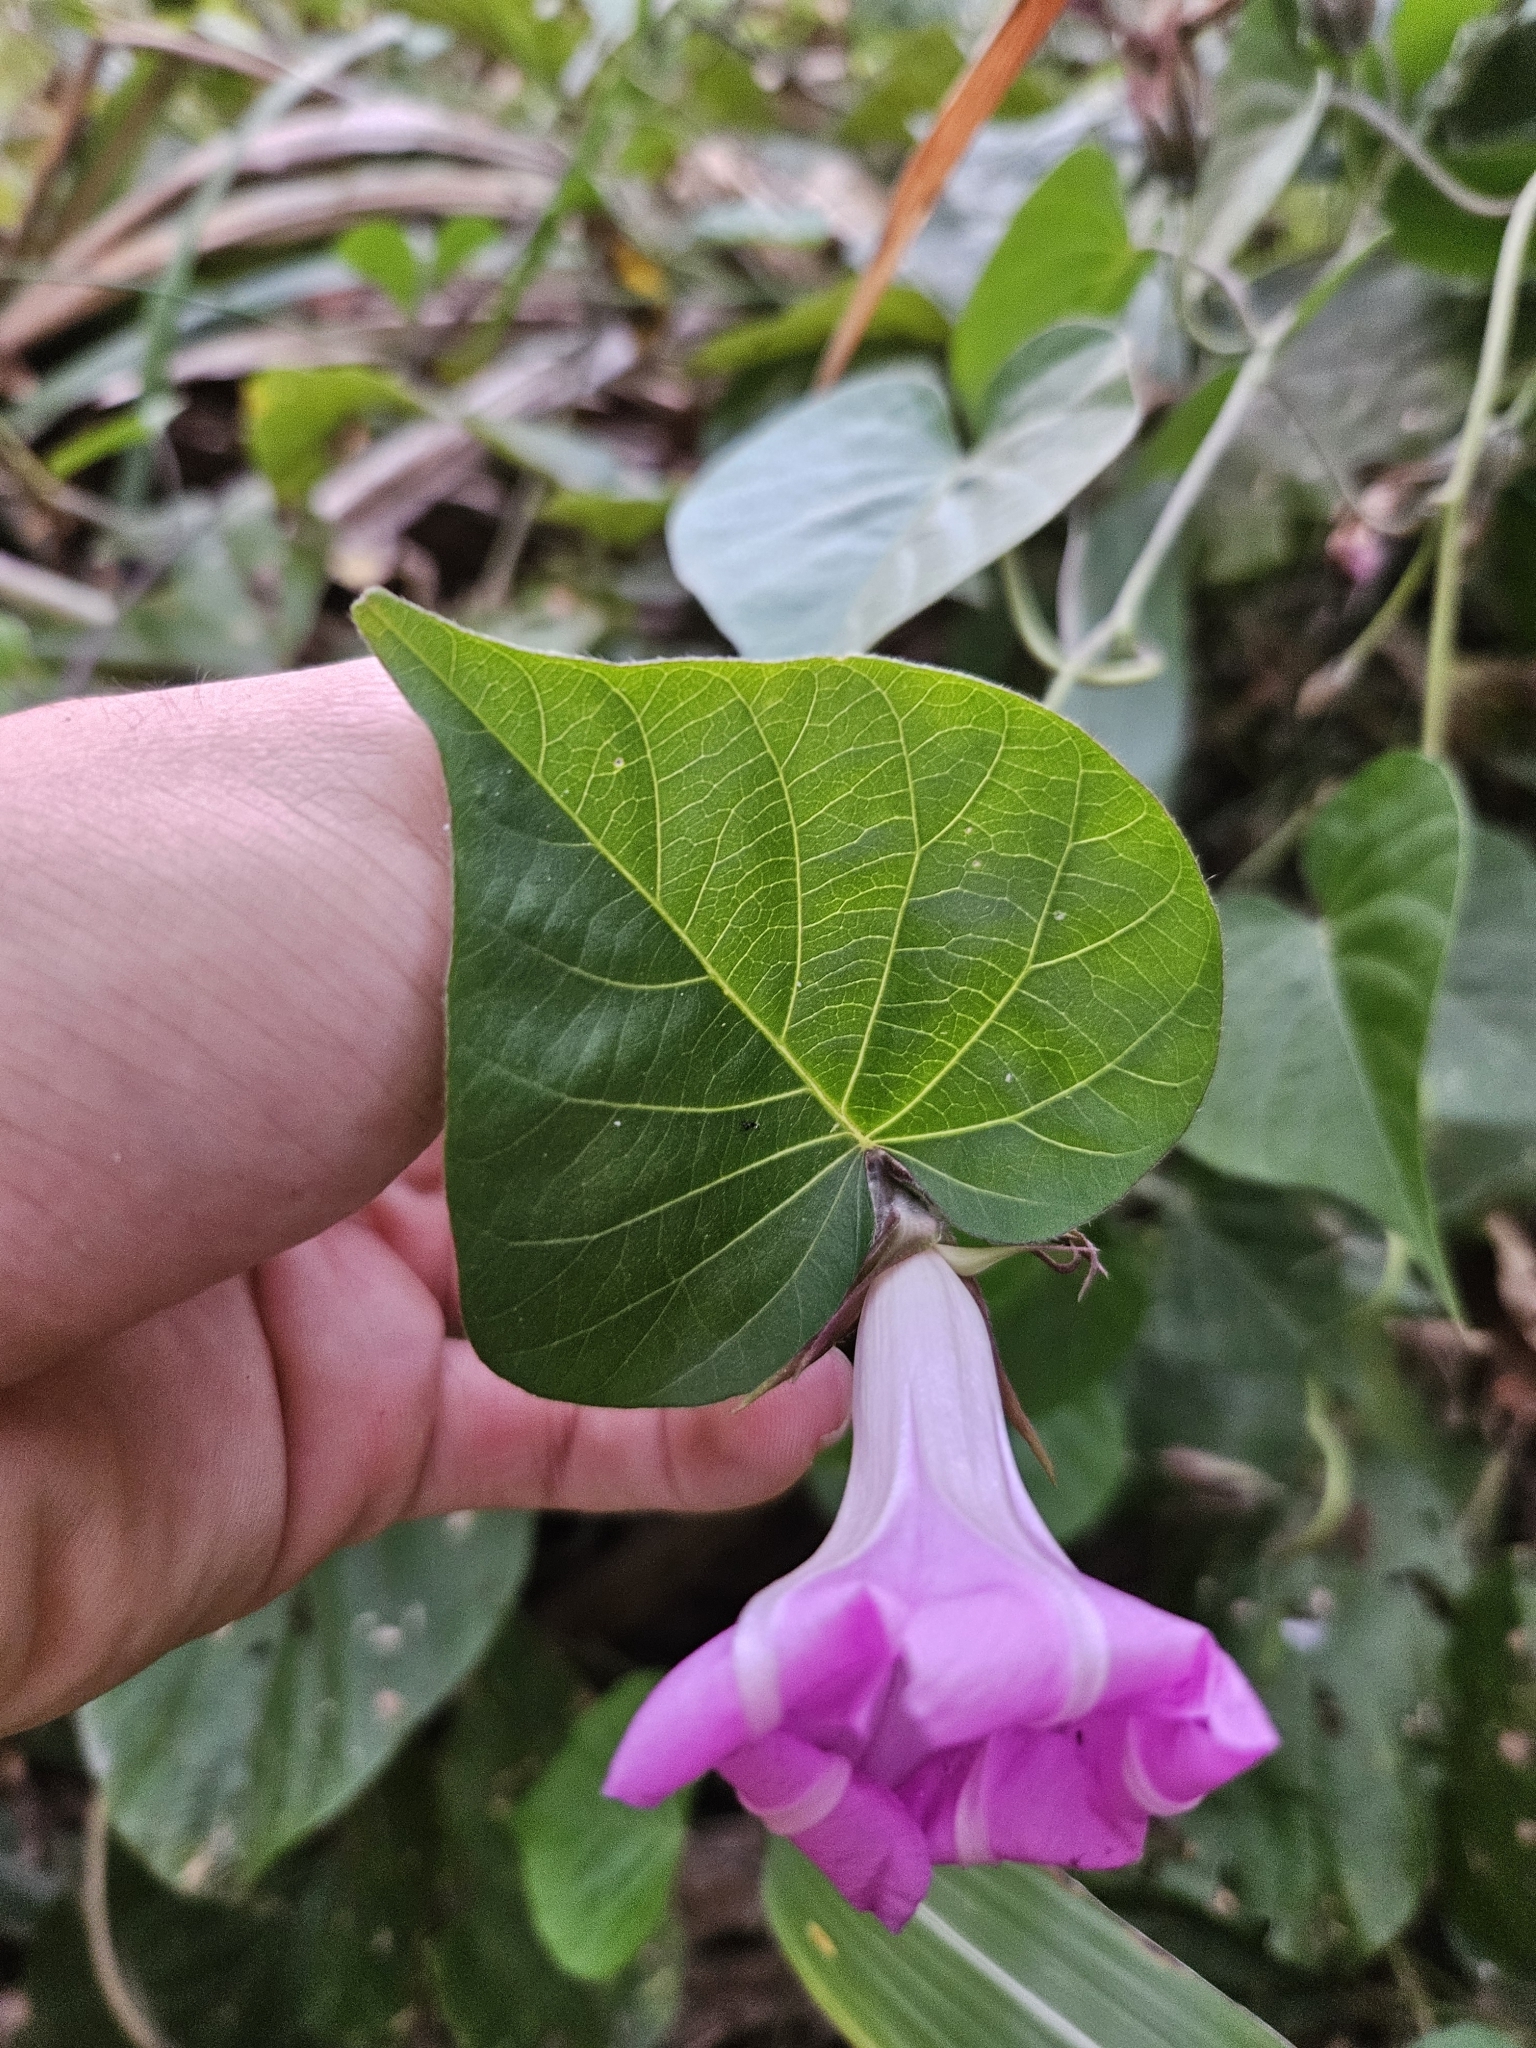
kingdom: Plantae
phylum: Tracheophyta
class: Magnoliopsida
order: Solanales
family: Convolvulaceae
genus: Ipomoea
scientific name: Ipomoea indica
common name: Blue dawnflower
